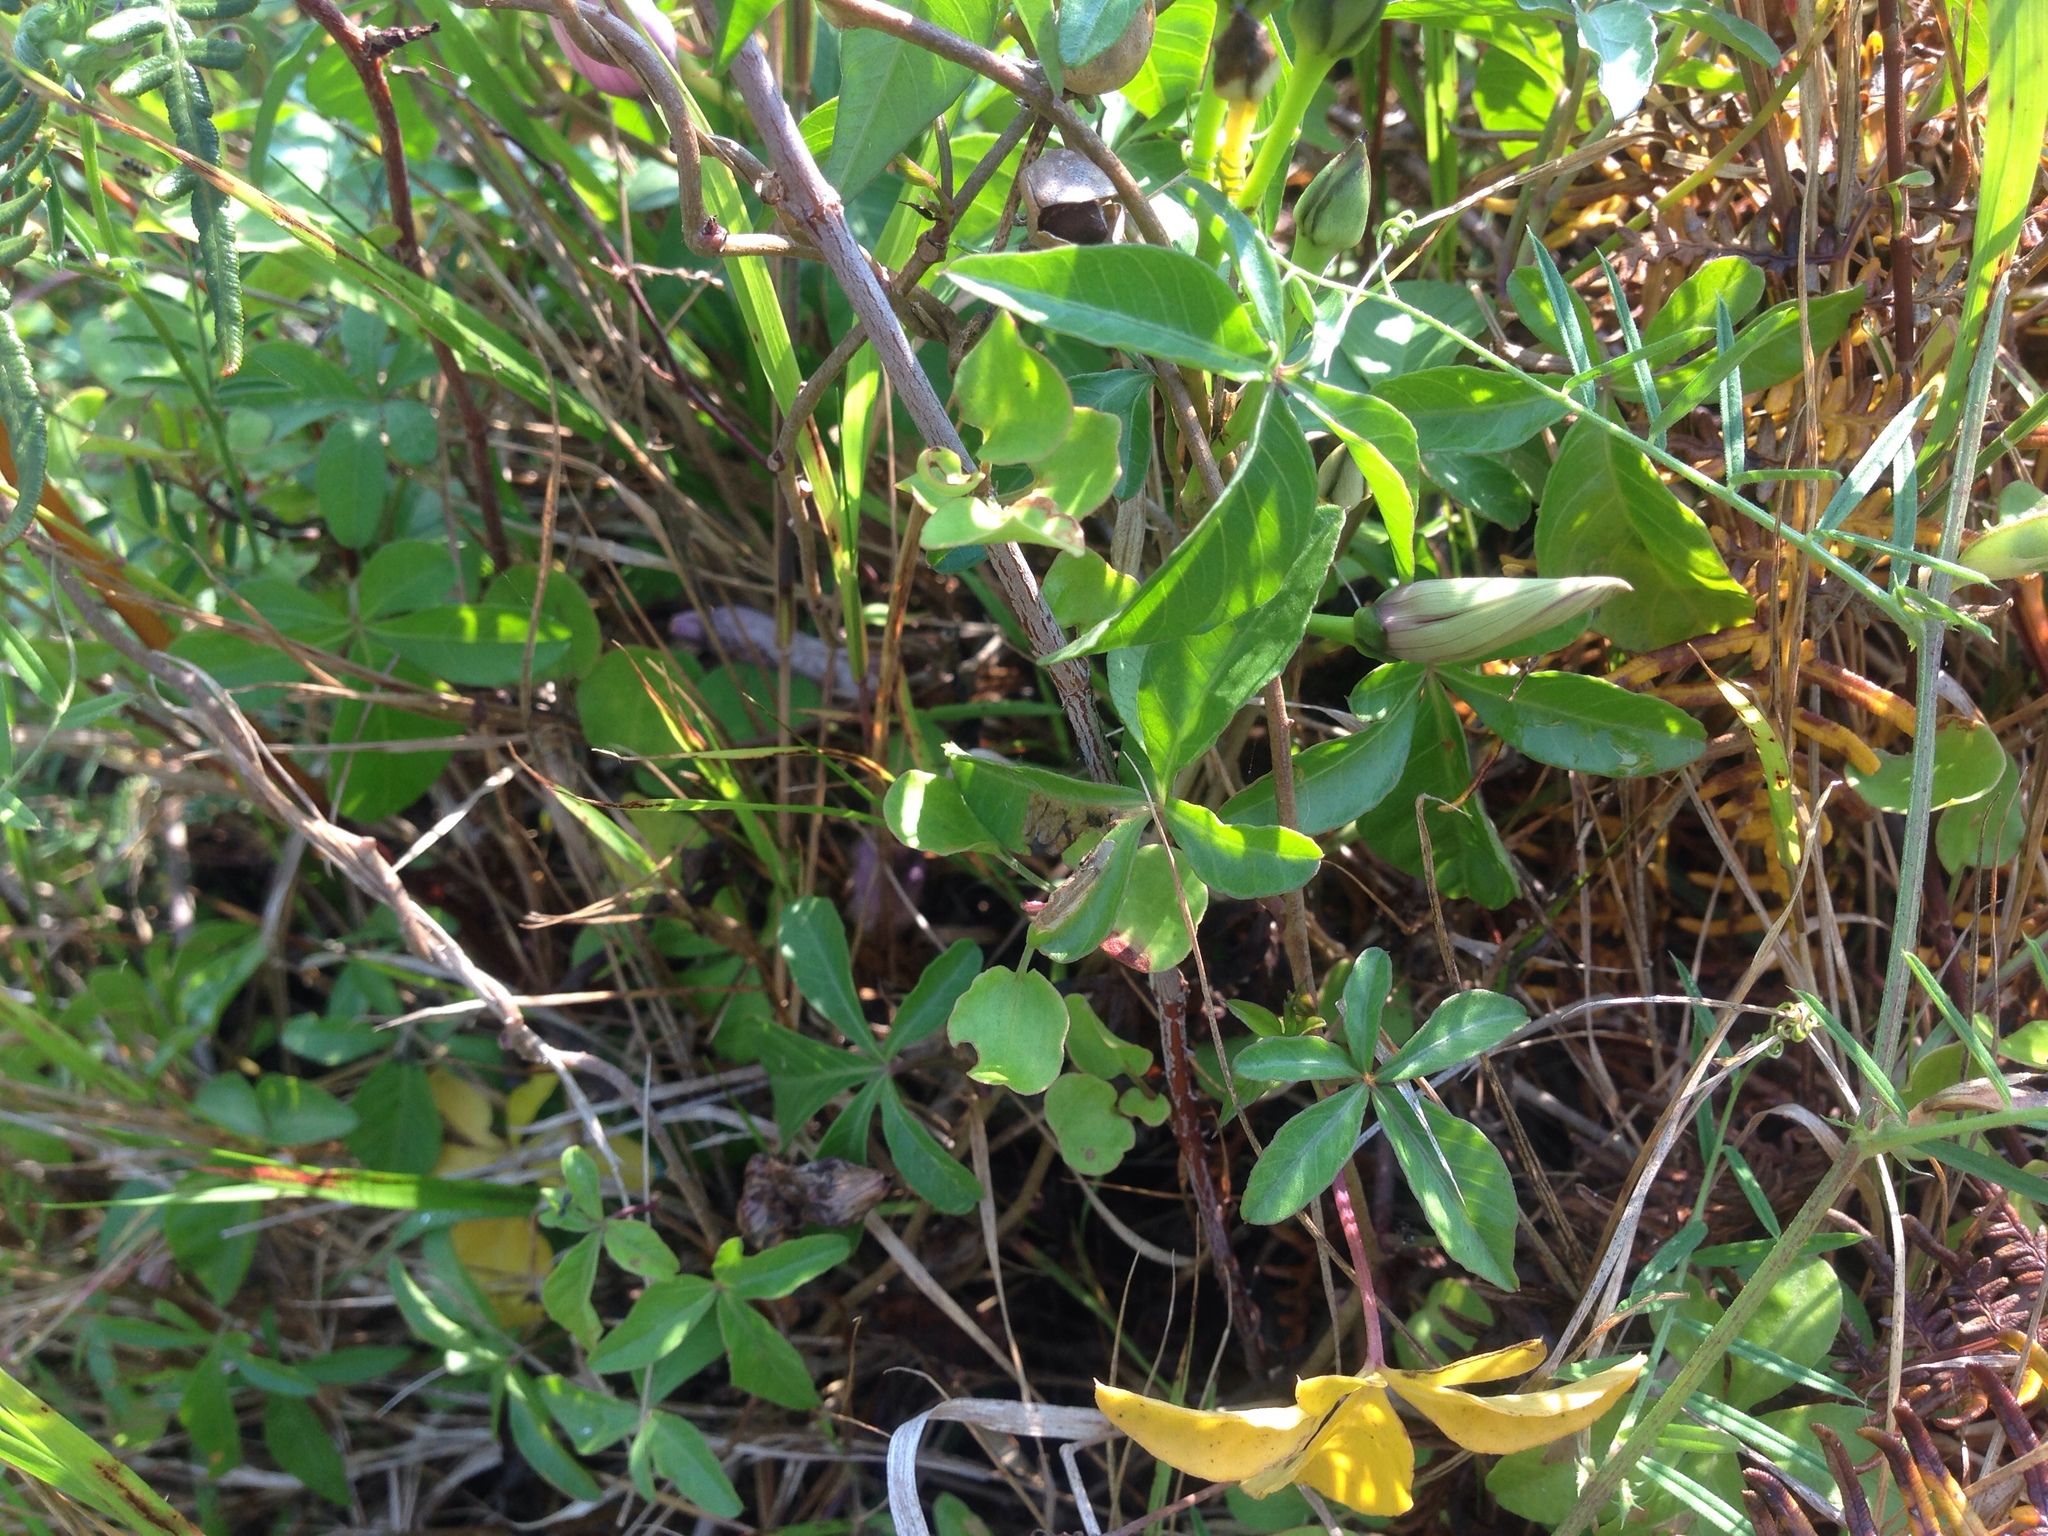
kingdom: Plantae
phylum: Tracheophyta
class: Magnoliopsida
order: Solanales
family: Convolvulaceae
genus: Ipomoea
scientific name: Ipomoea cairica
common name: Mile a minute vine
